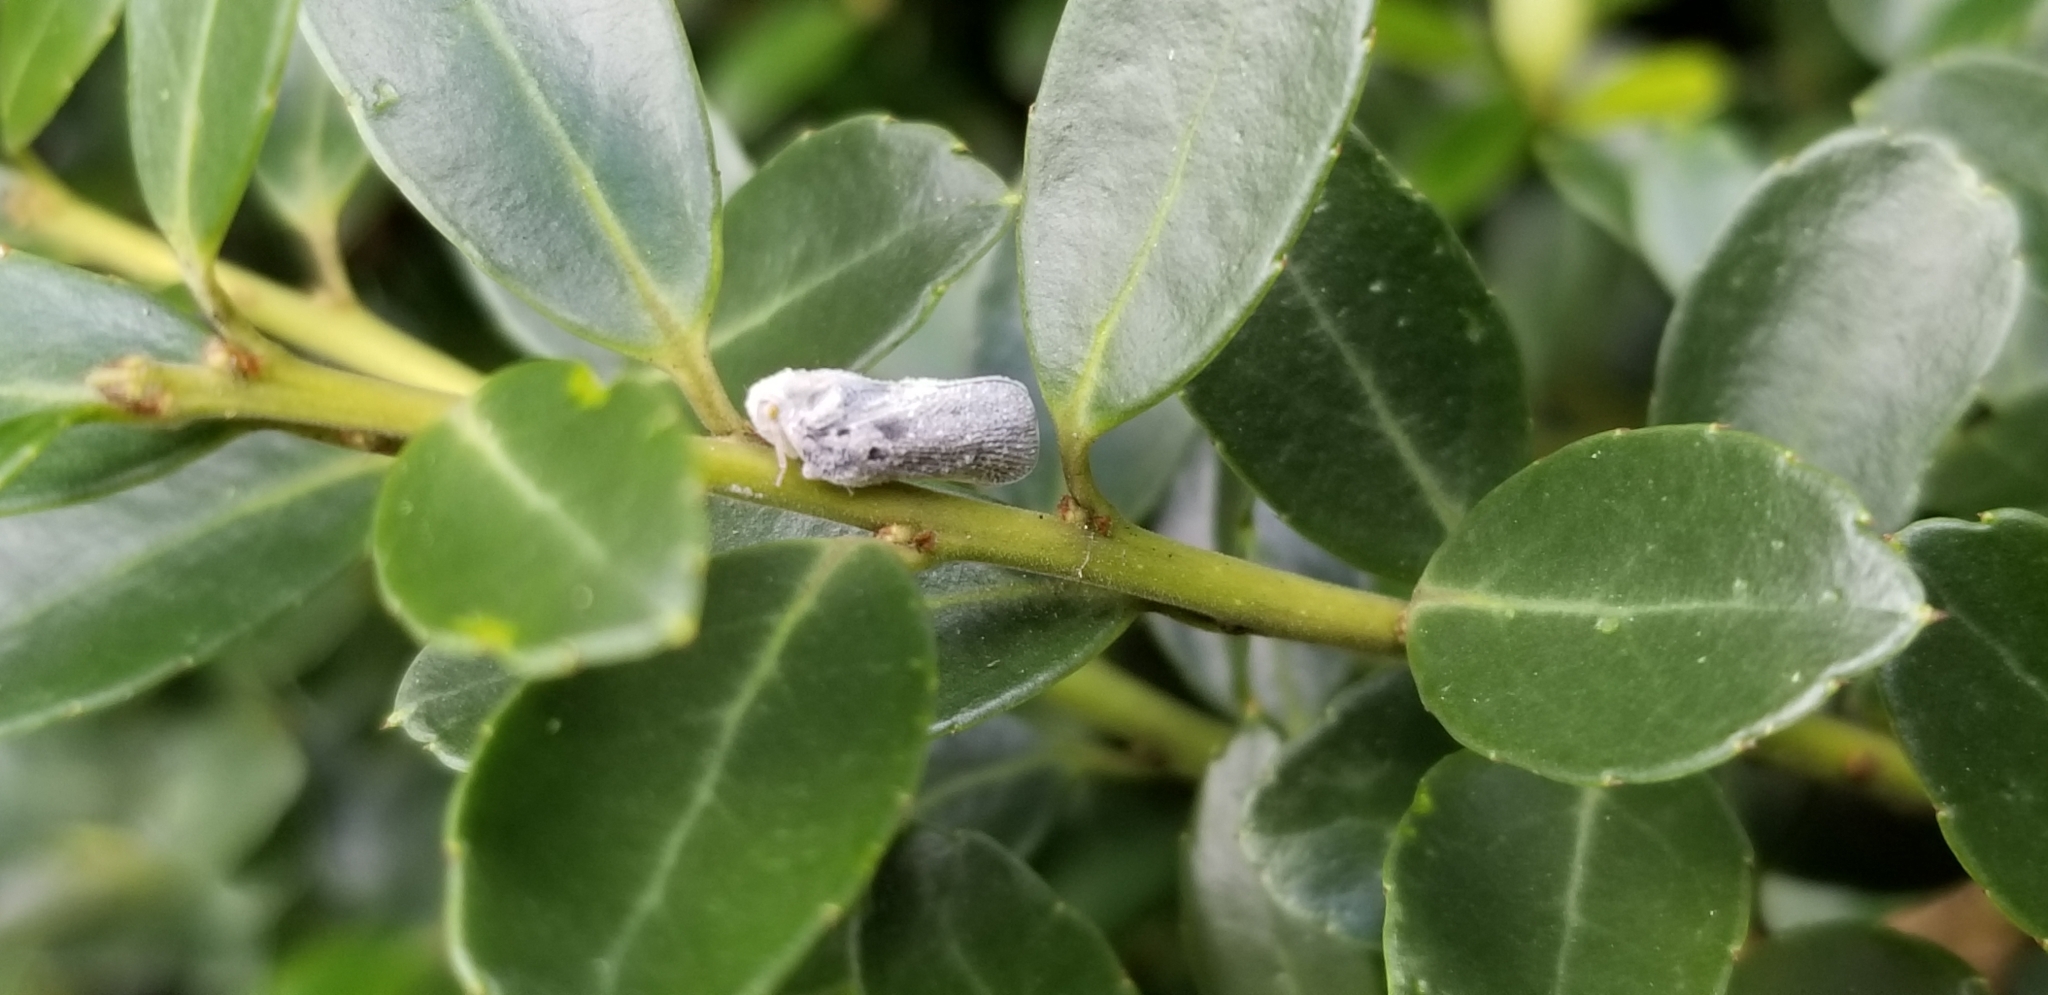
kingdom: Animalia
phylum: Arthropoda
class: Insecta
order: Hemiptera
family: Flatidae
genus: Metcalfa
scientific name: Metcalfa pruinosa
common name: Citrus flatid planthopper
